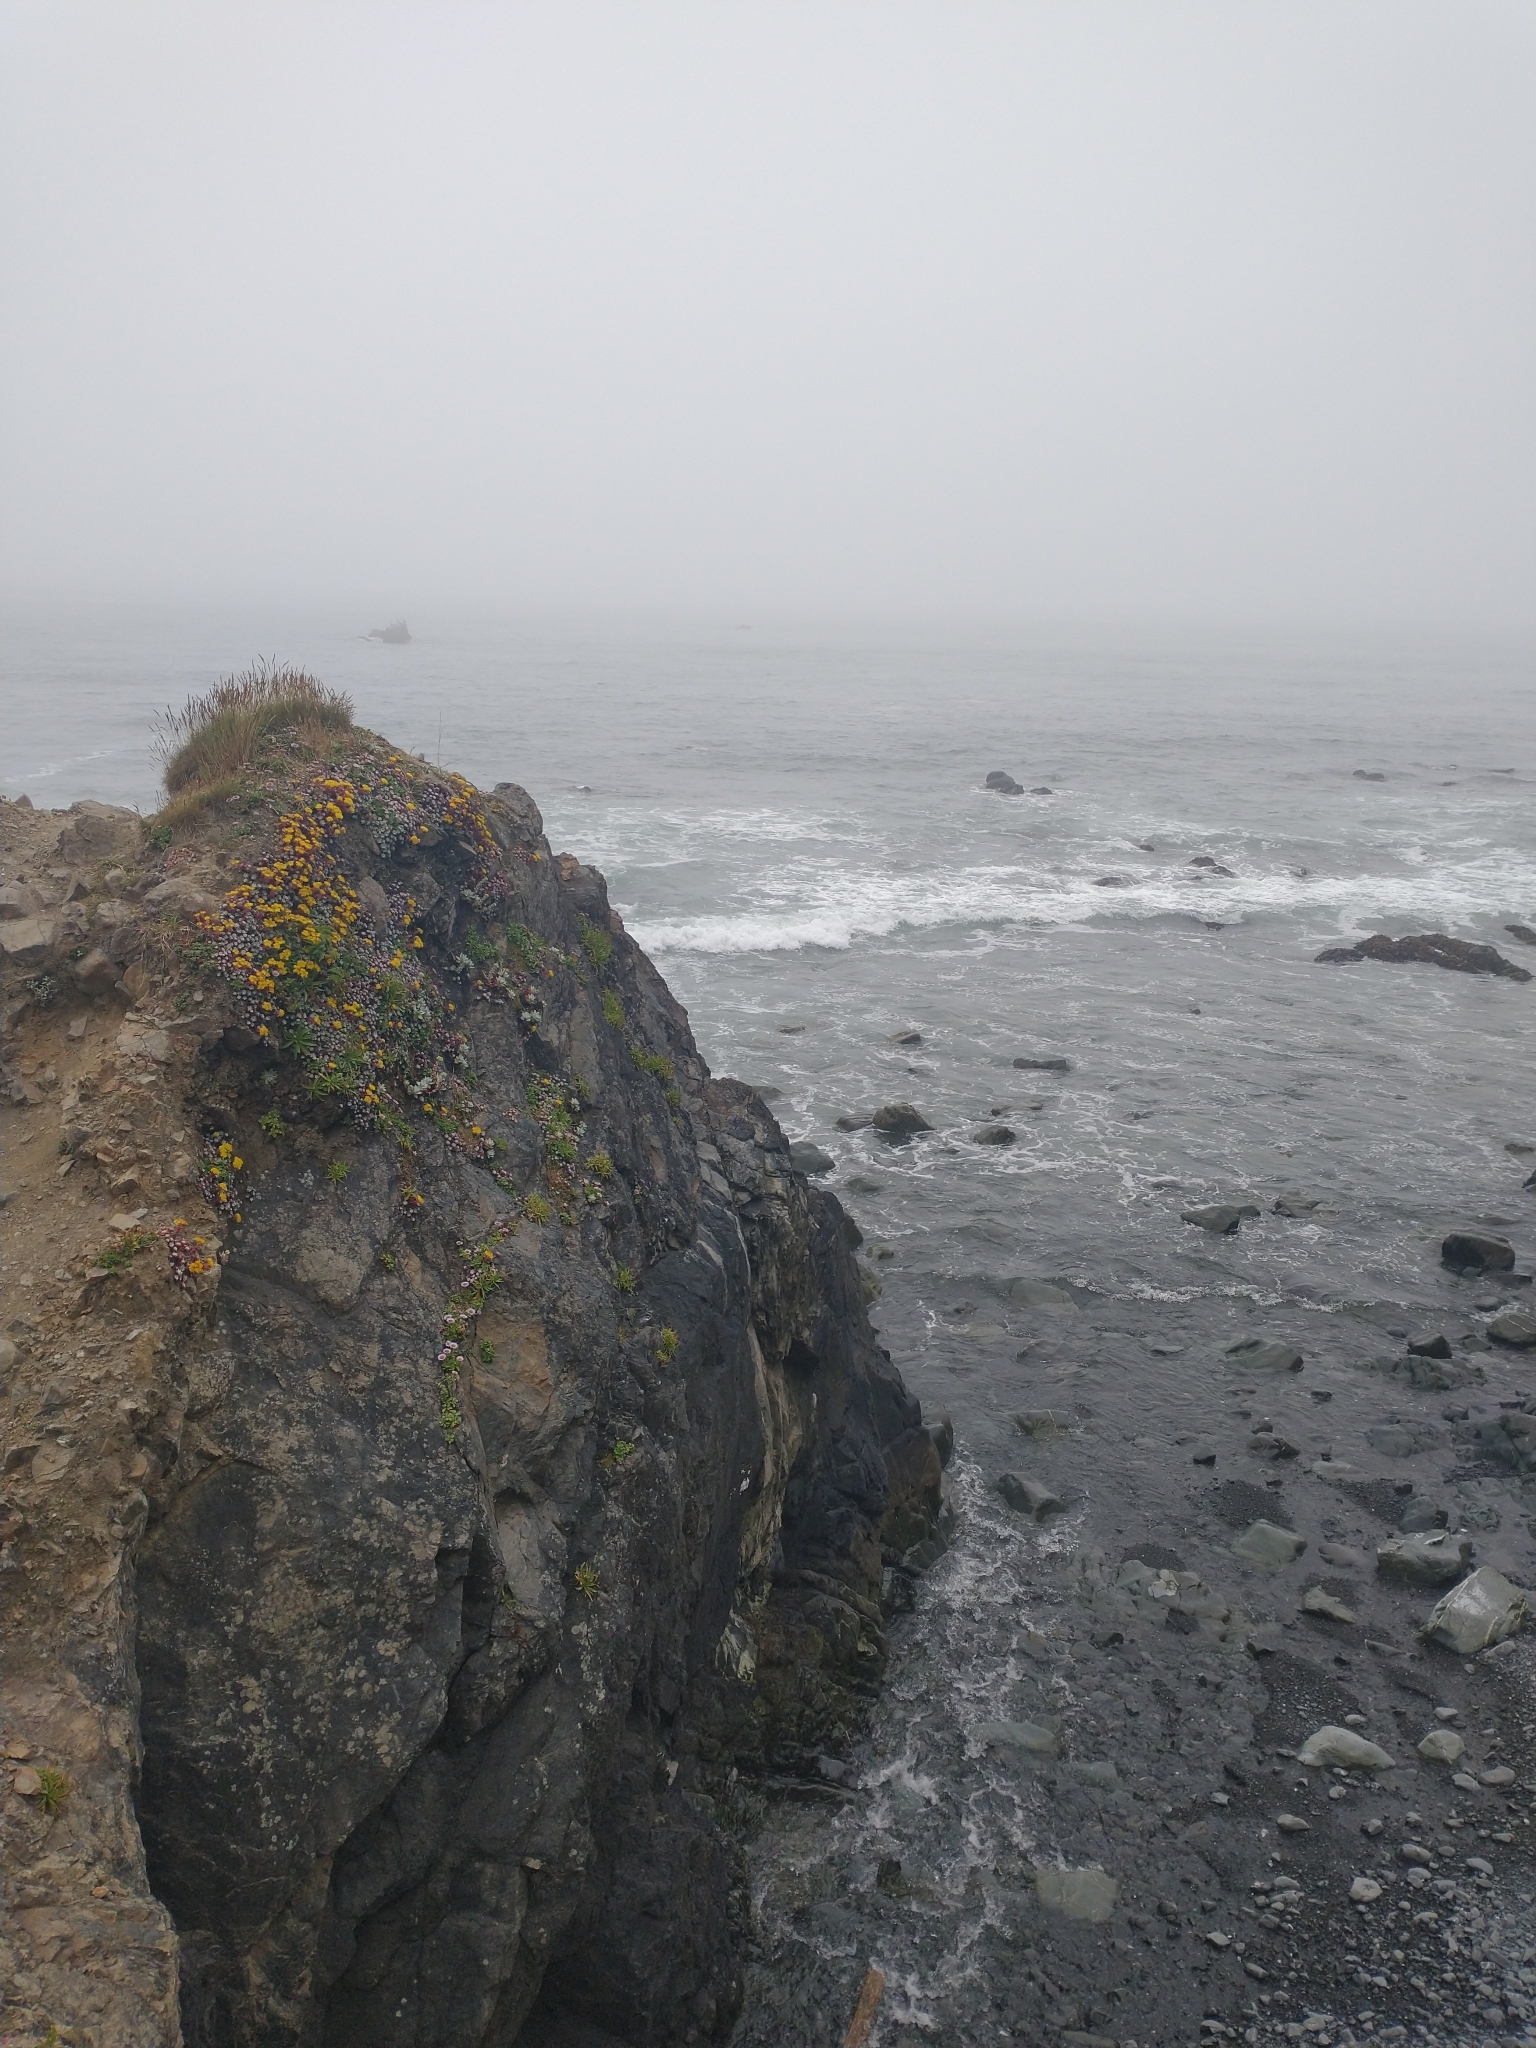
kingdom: Plantae
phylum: Tracheophyta
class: Magnoliopsida
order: Saxifragales
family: Crassulaceae
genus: Sedum
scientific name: Sedum spathulifolium
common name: Colorado stonecrop
